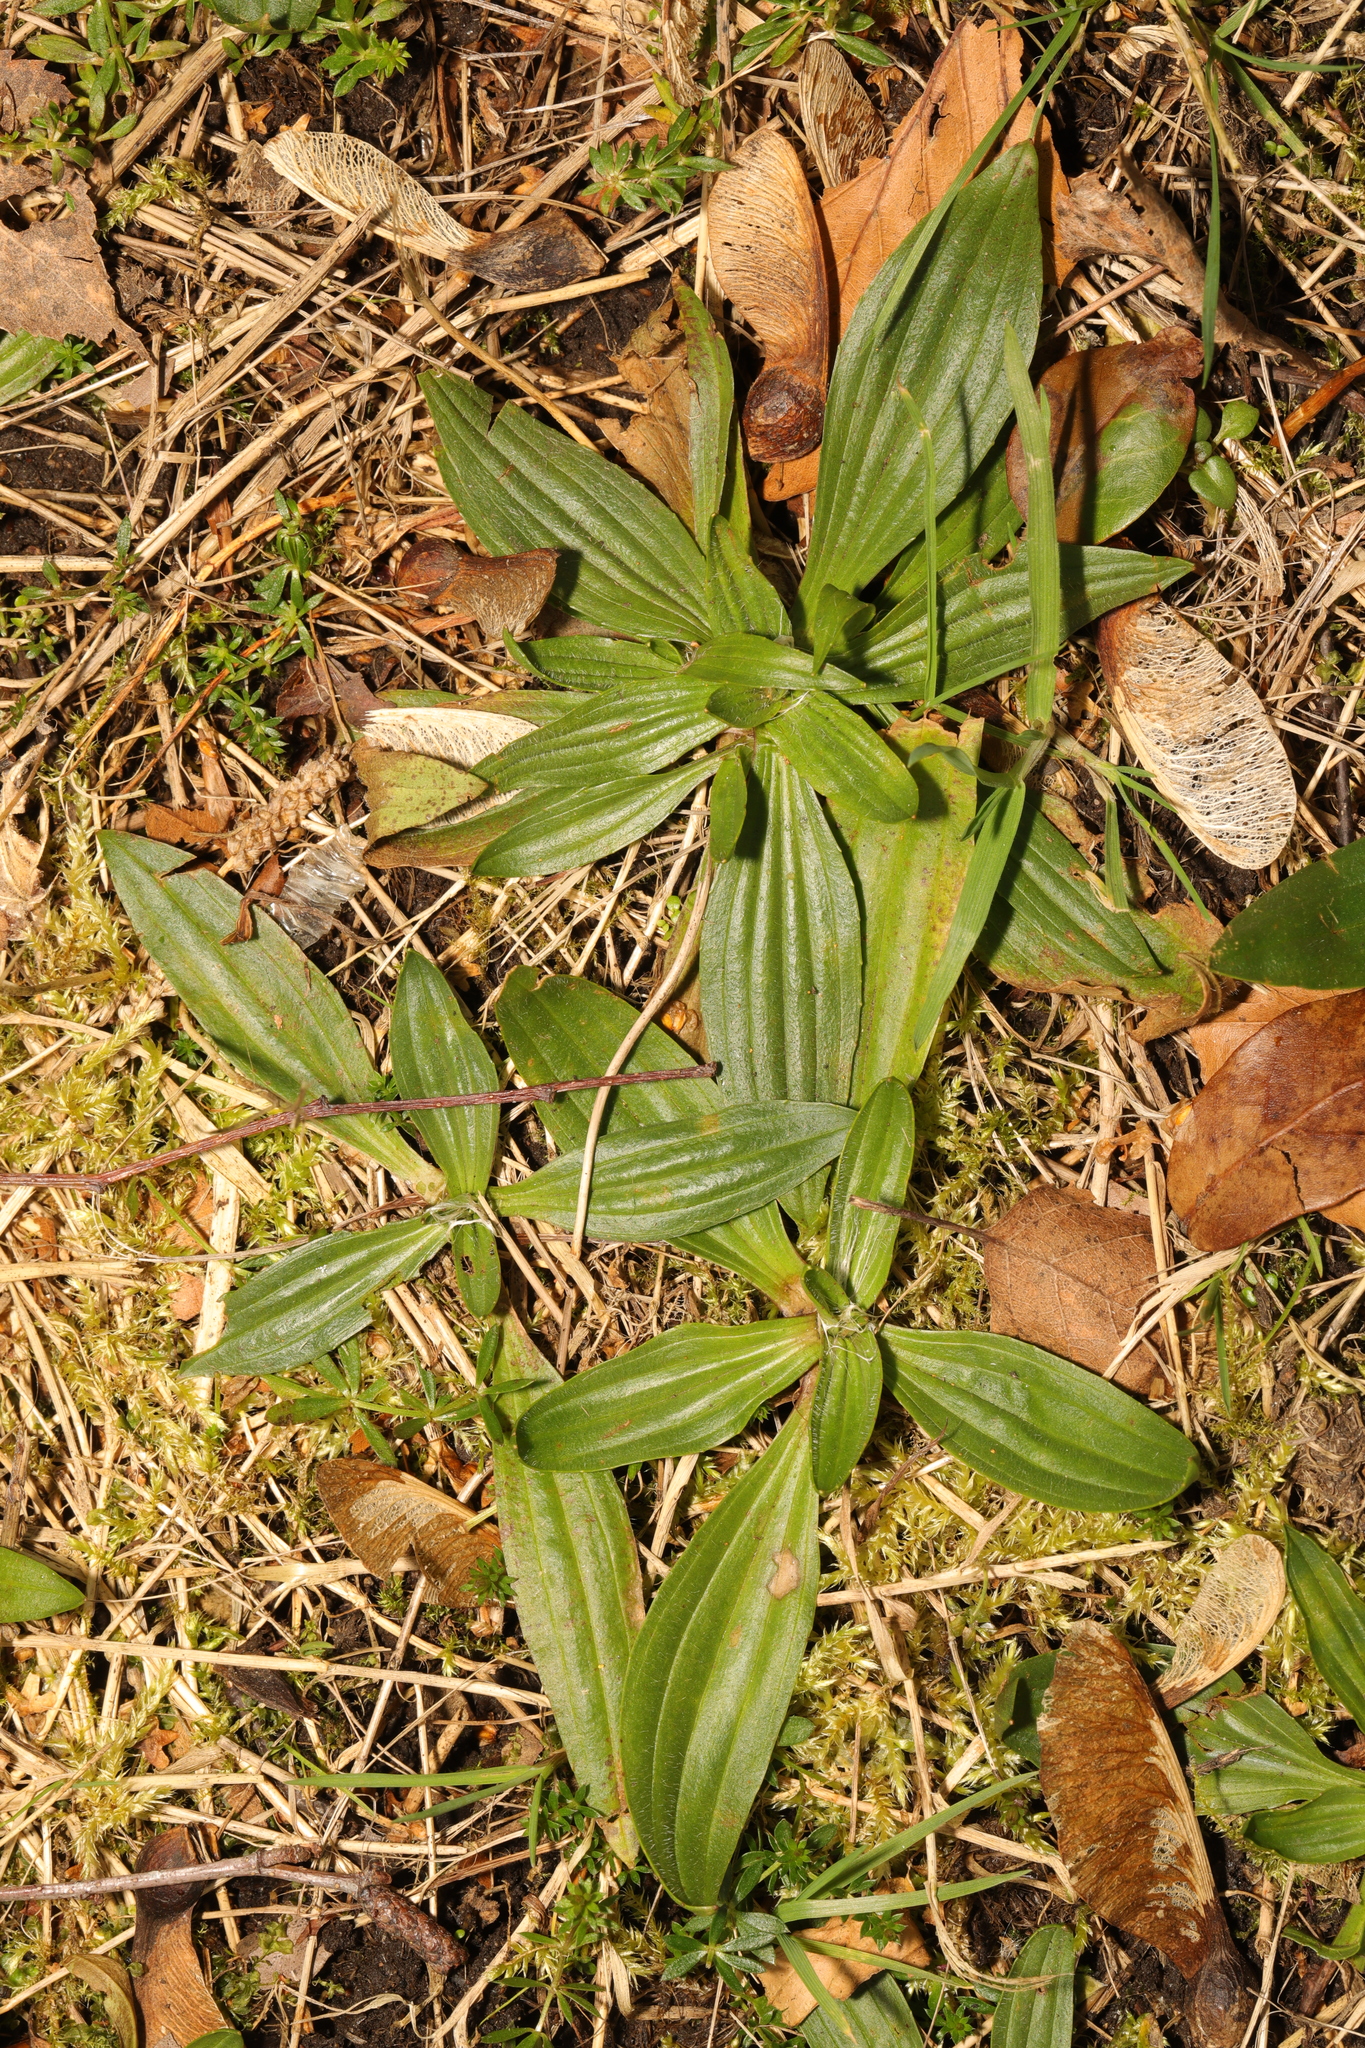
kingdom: Plantae
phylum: Tracheophyta
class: Magnoliopsida
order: Lamiales
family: Plantaginaceae
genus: Plantago
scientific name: Plantago lanceolata
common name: Ribwort plantain
